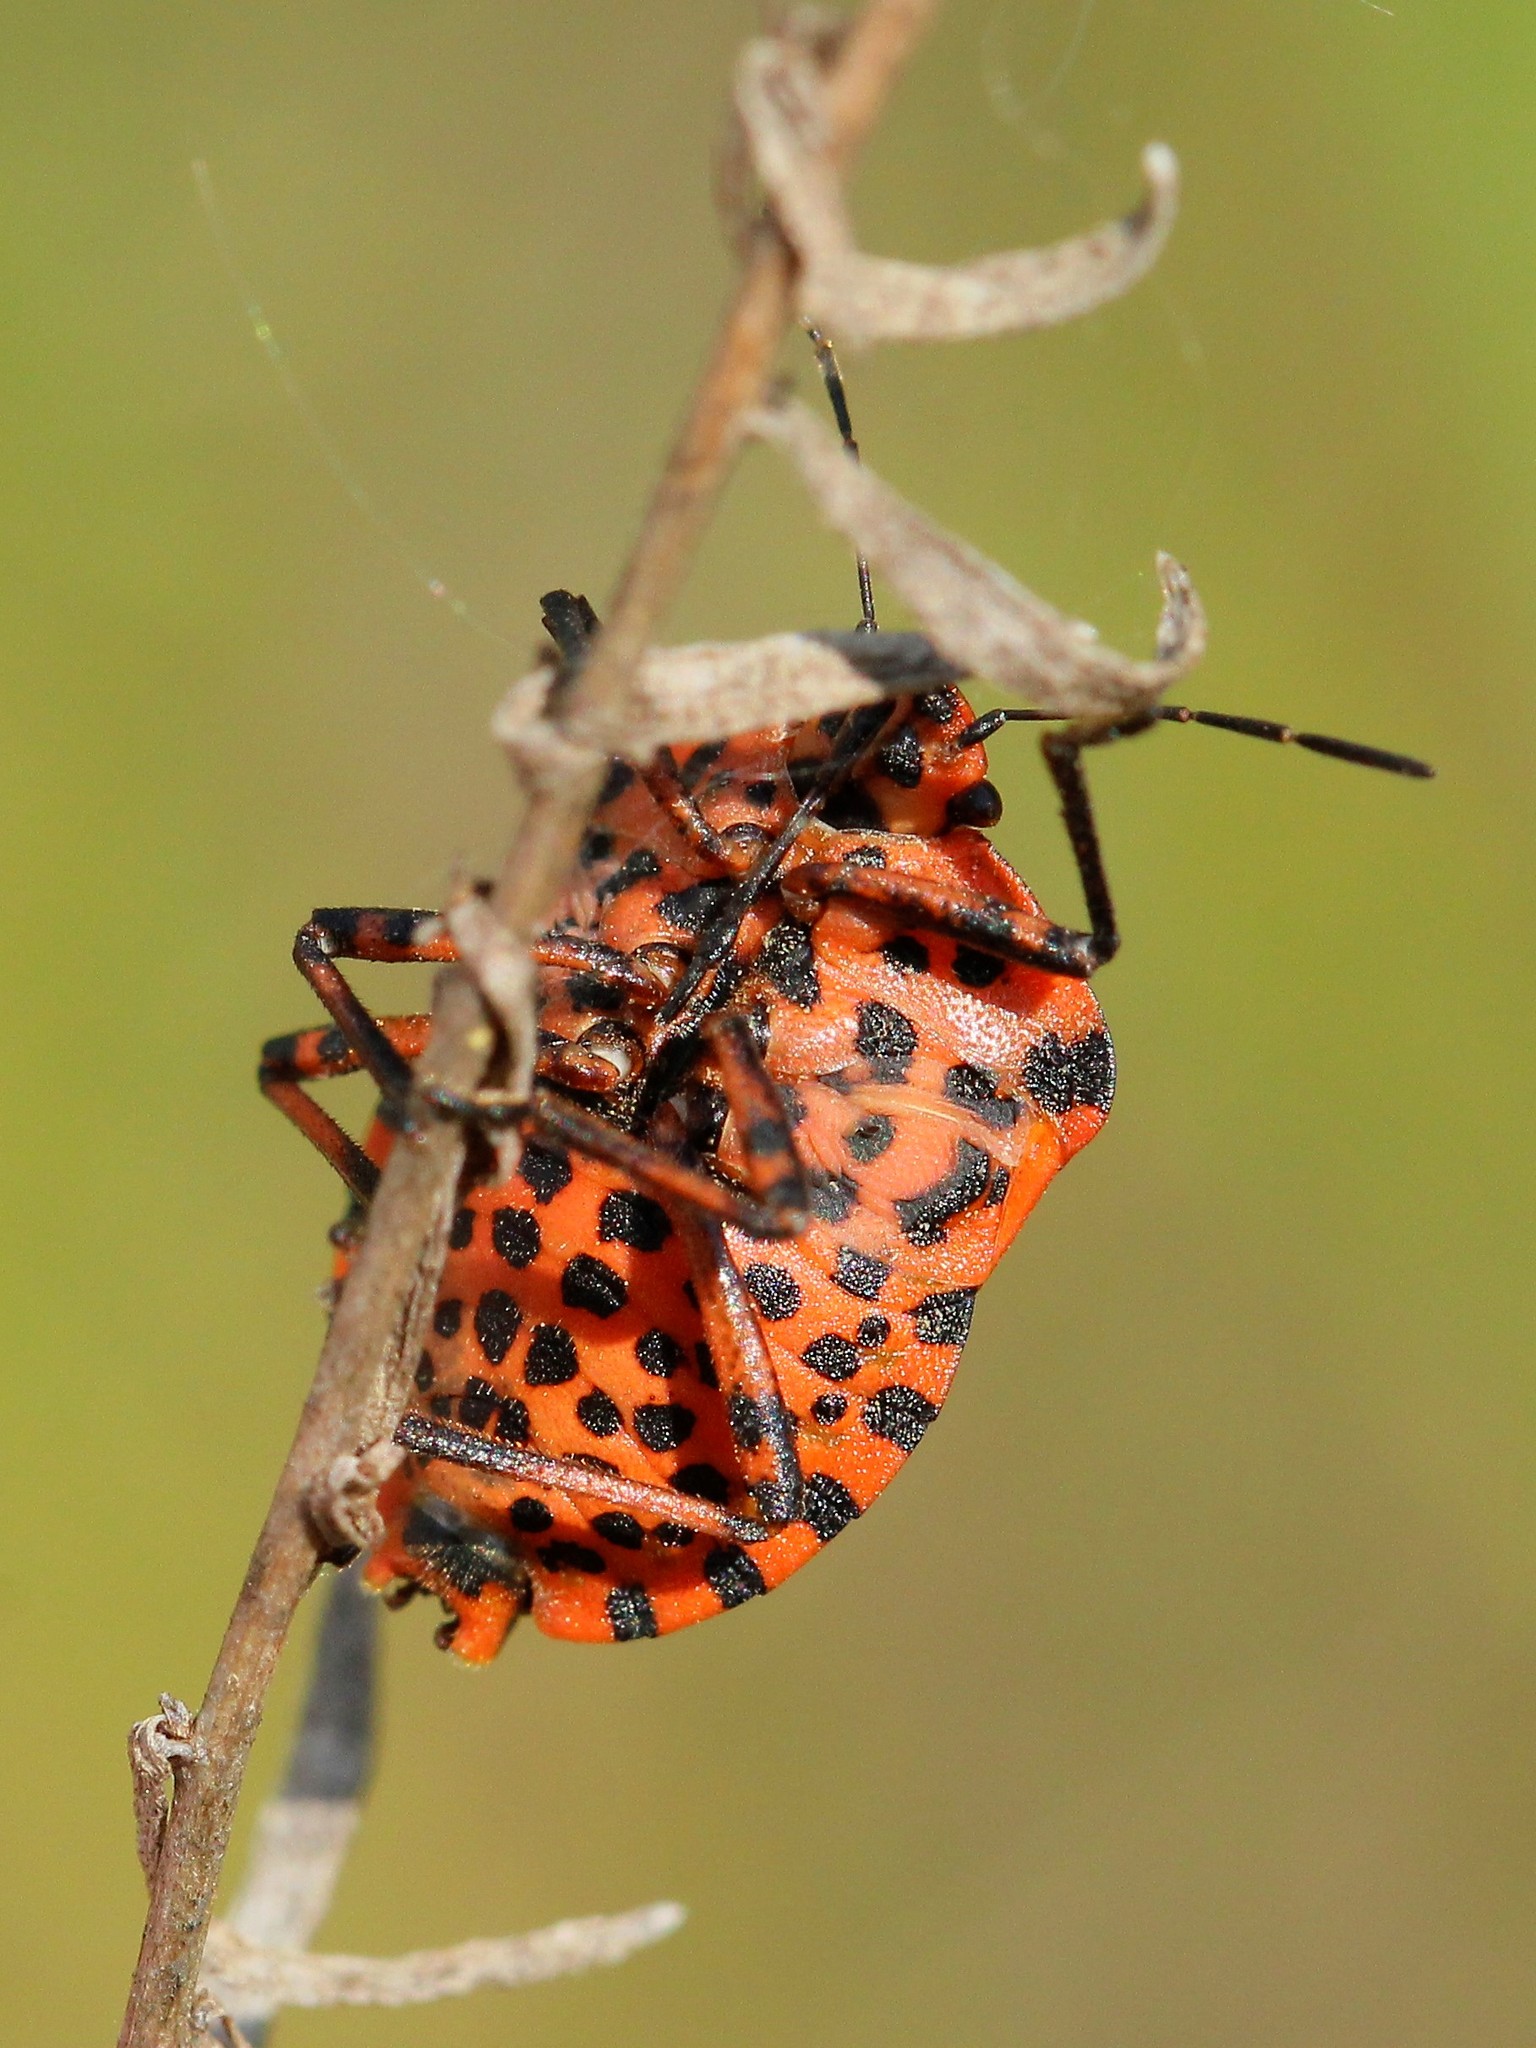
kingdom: Animalia
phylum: Arthropoda
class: Insecta
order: Hemiptera
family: Pentatomidae
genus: Graphosoma
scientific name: Graphosoma italicum
